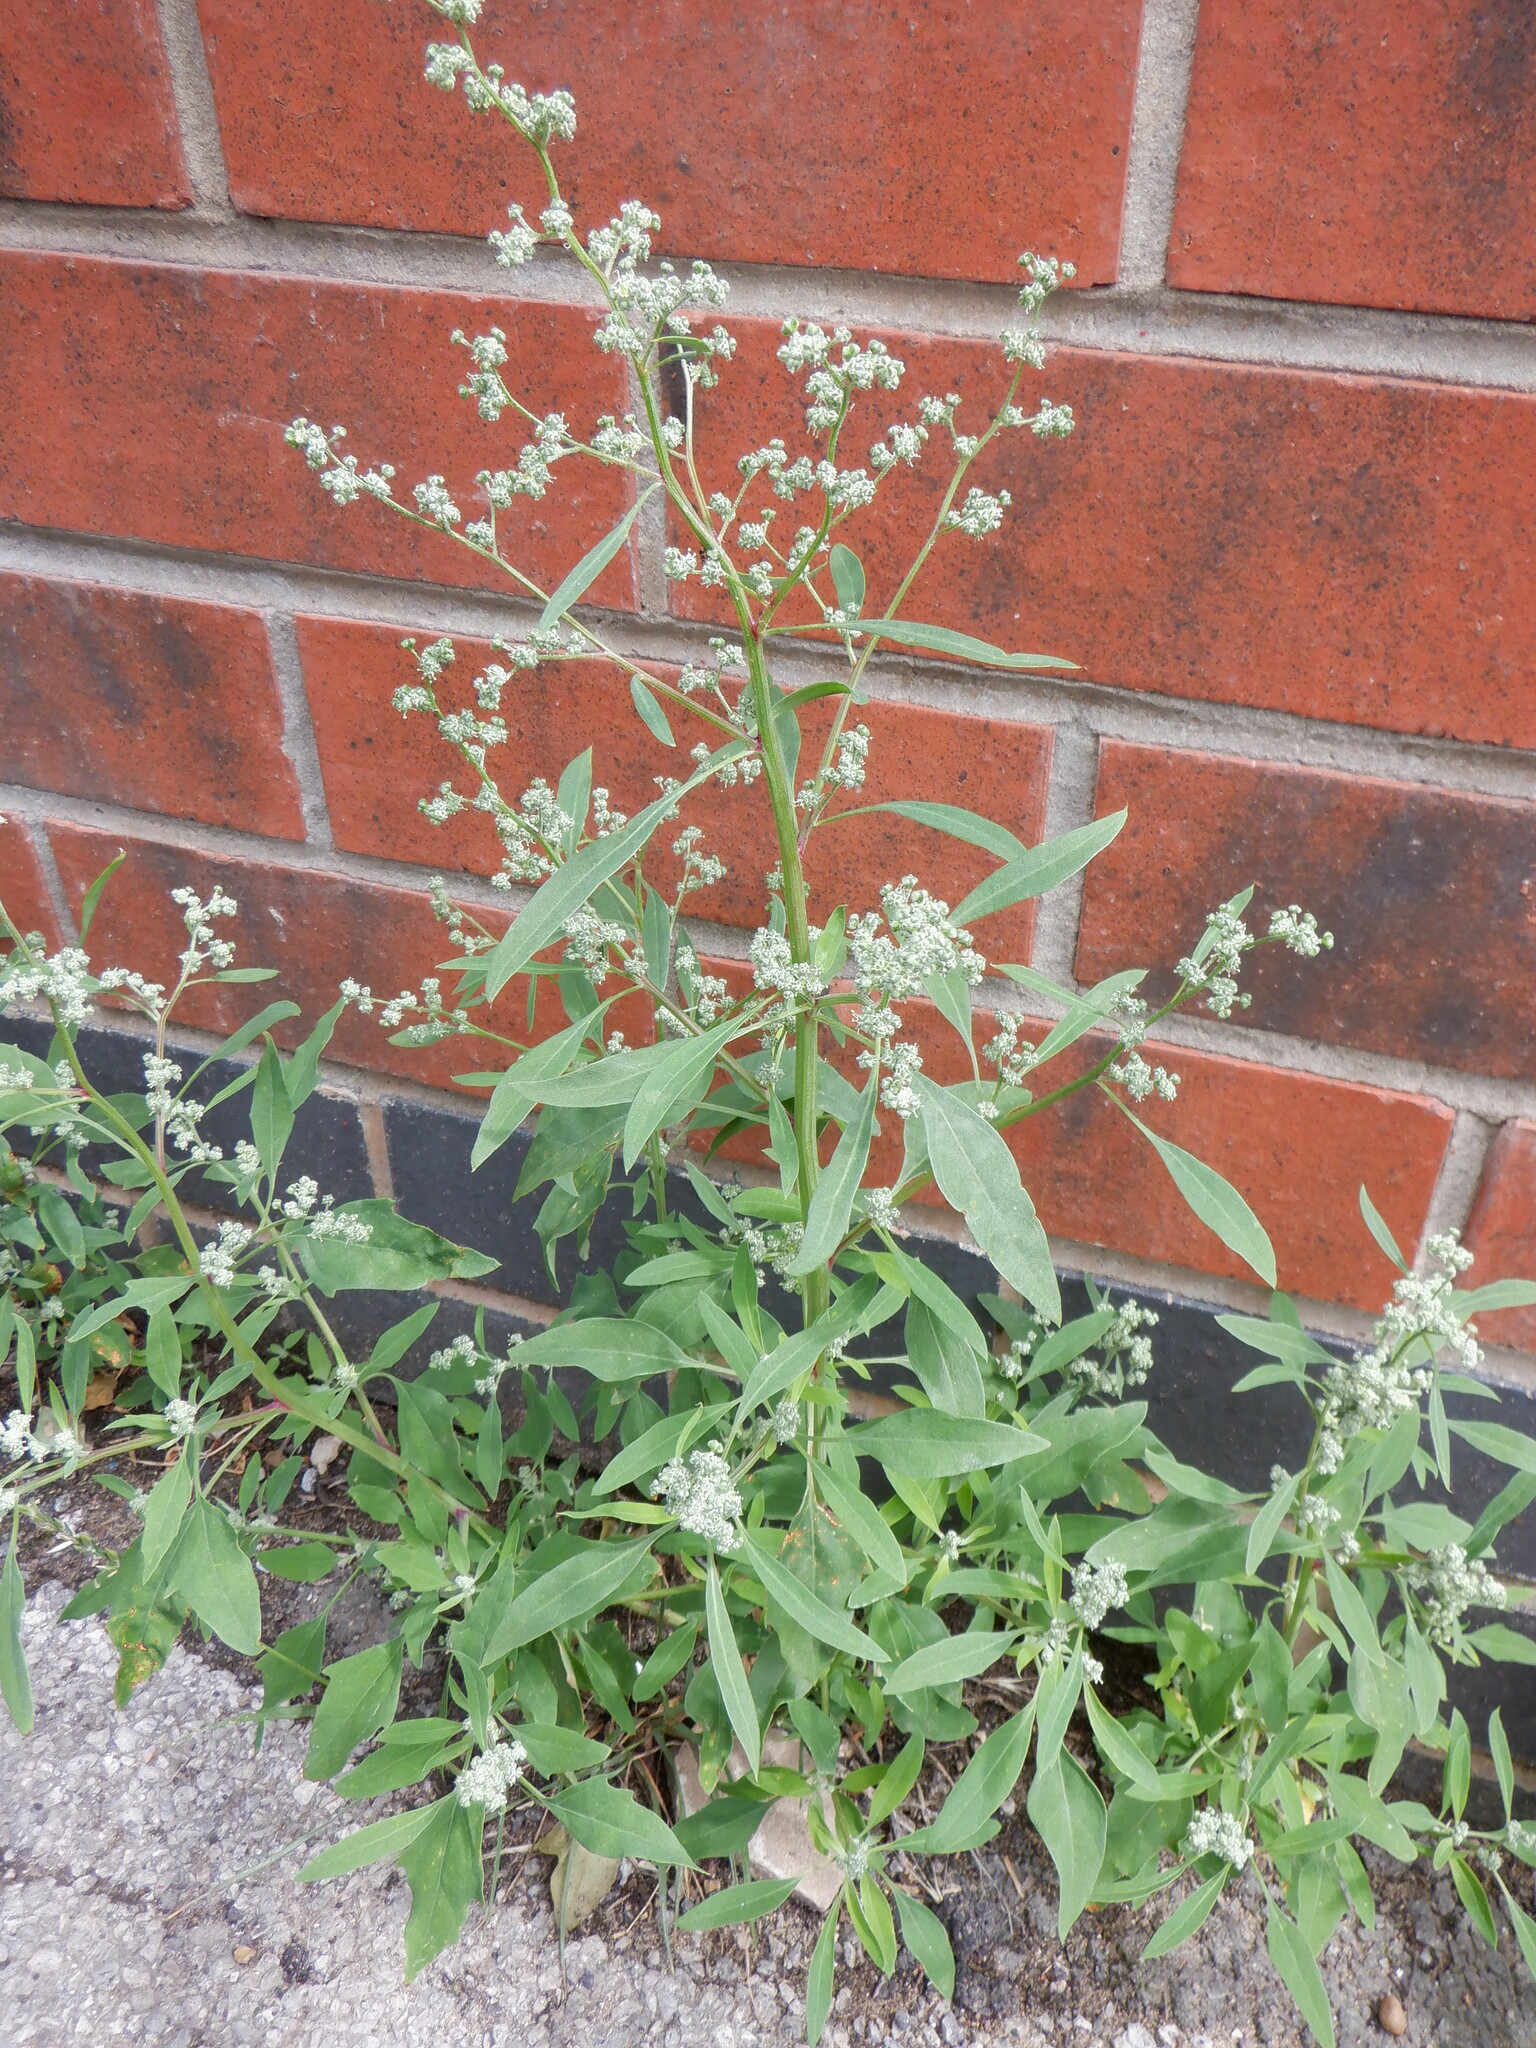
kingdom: Plantae
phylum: Tracheophyta
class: Magnoliopsida
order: Caryophyllales
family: Amaranthaceae
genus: Chenopodium
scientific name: Chenopodium album
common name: Fat-hen
